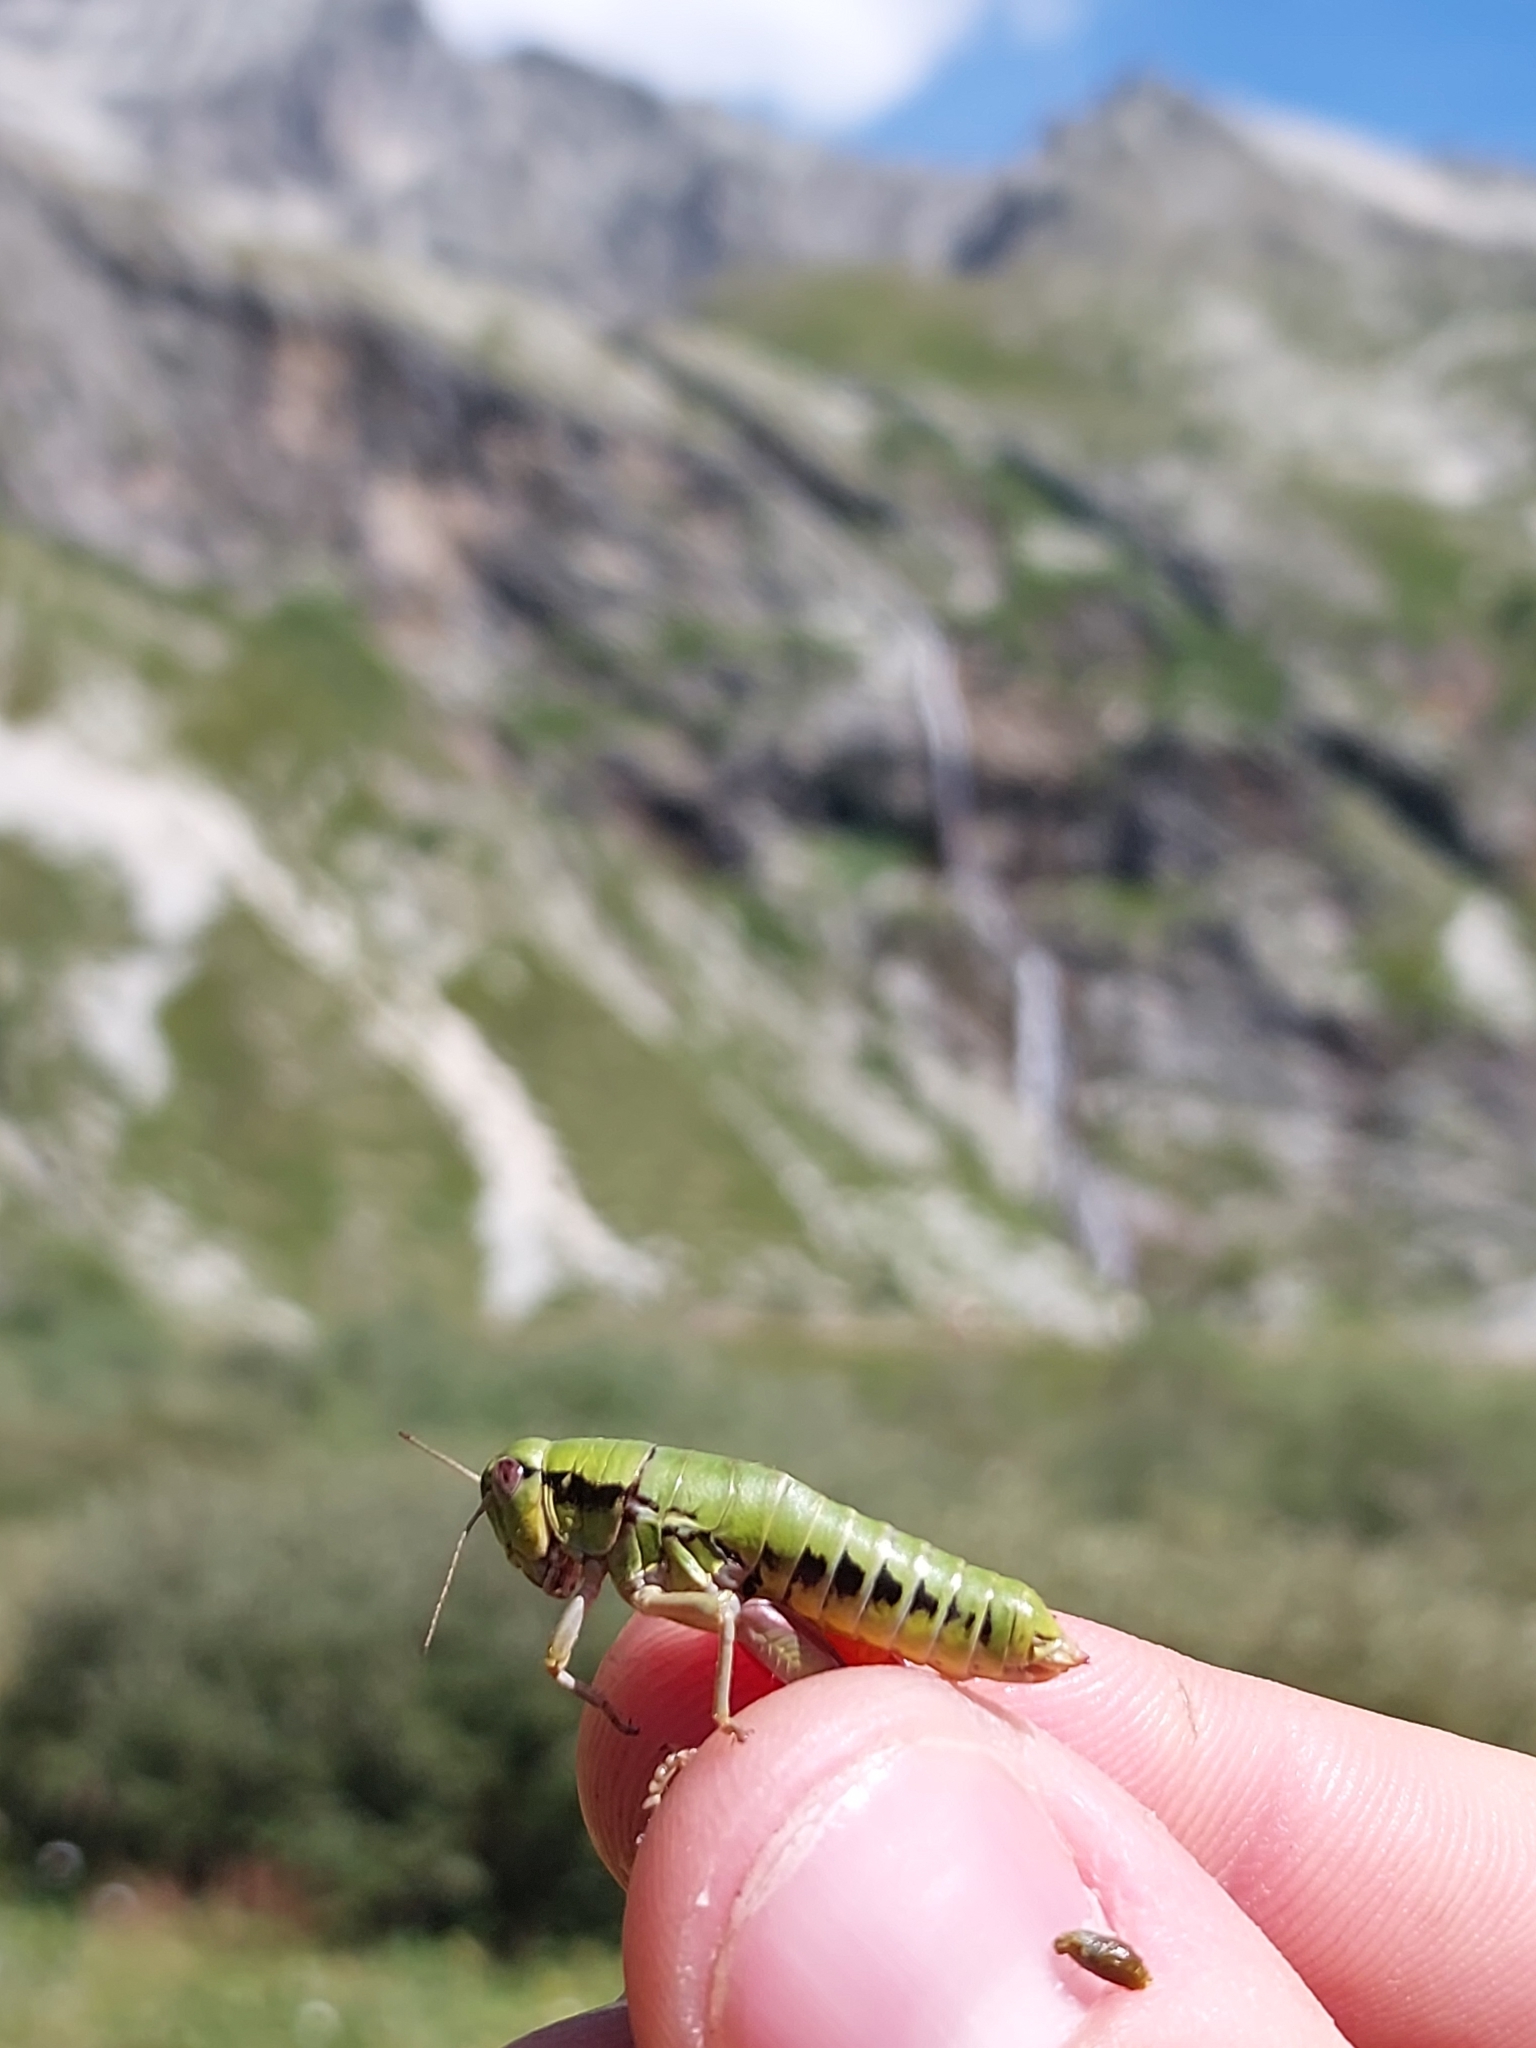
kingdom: Animalia
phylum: Arthropoda
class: Insecta
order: Orthoptera
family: Acrididae
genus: Epipodisma
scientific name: Epipodisma pedemontana
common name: Piedmont mountain grasshopper
